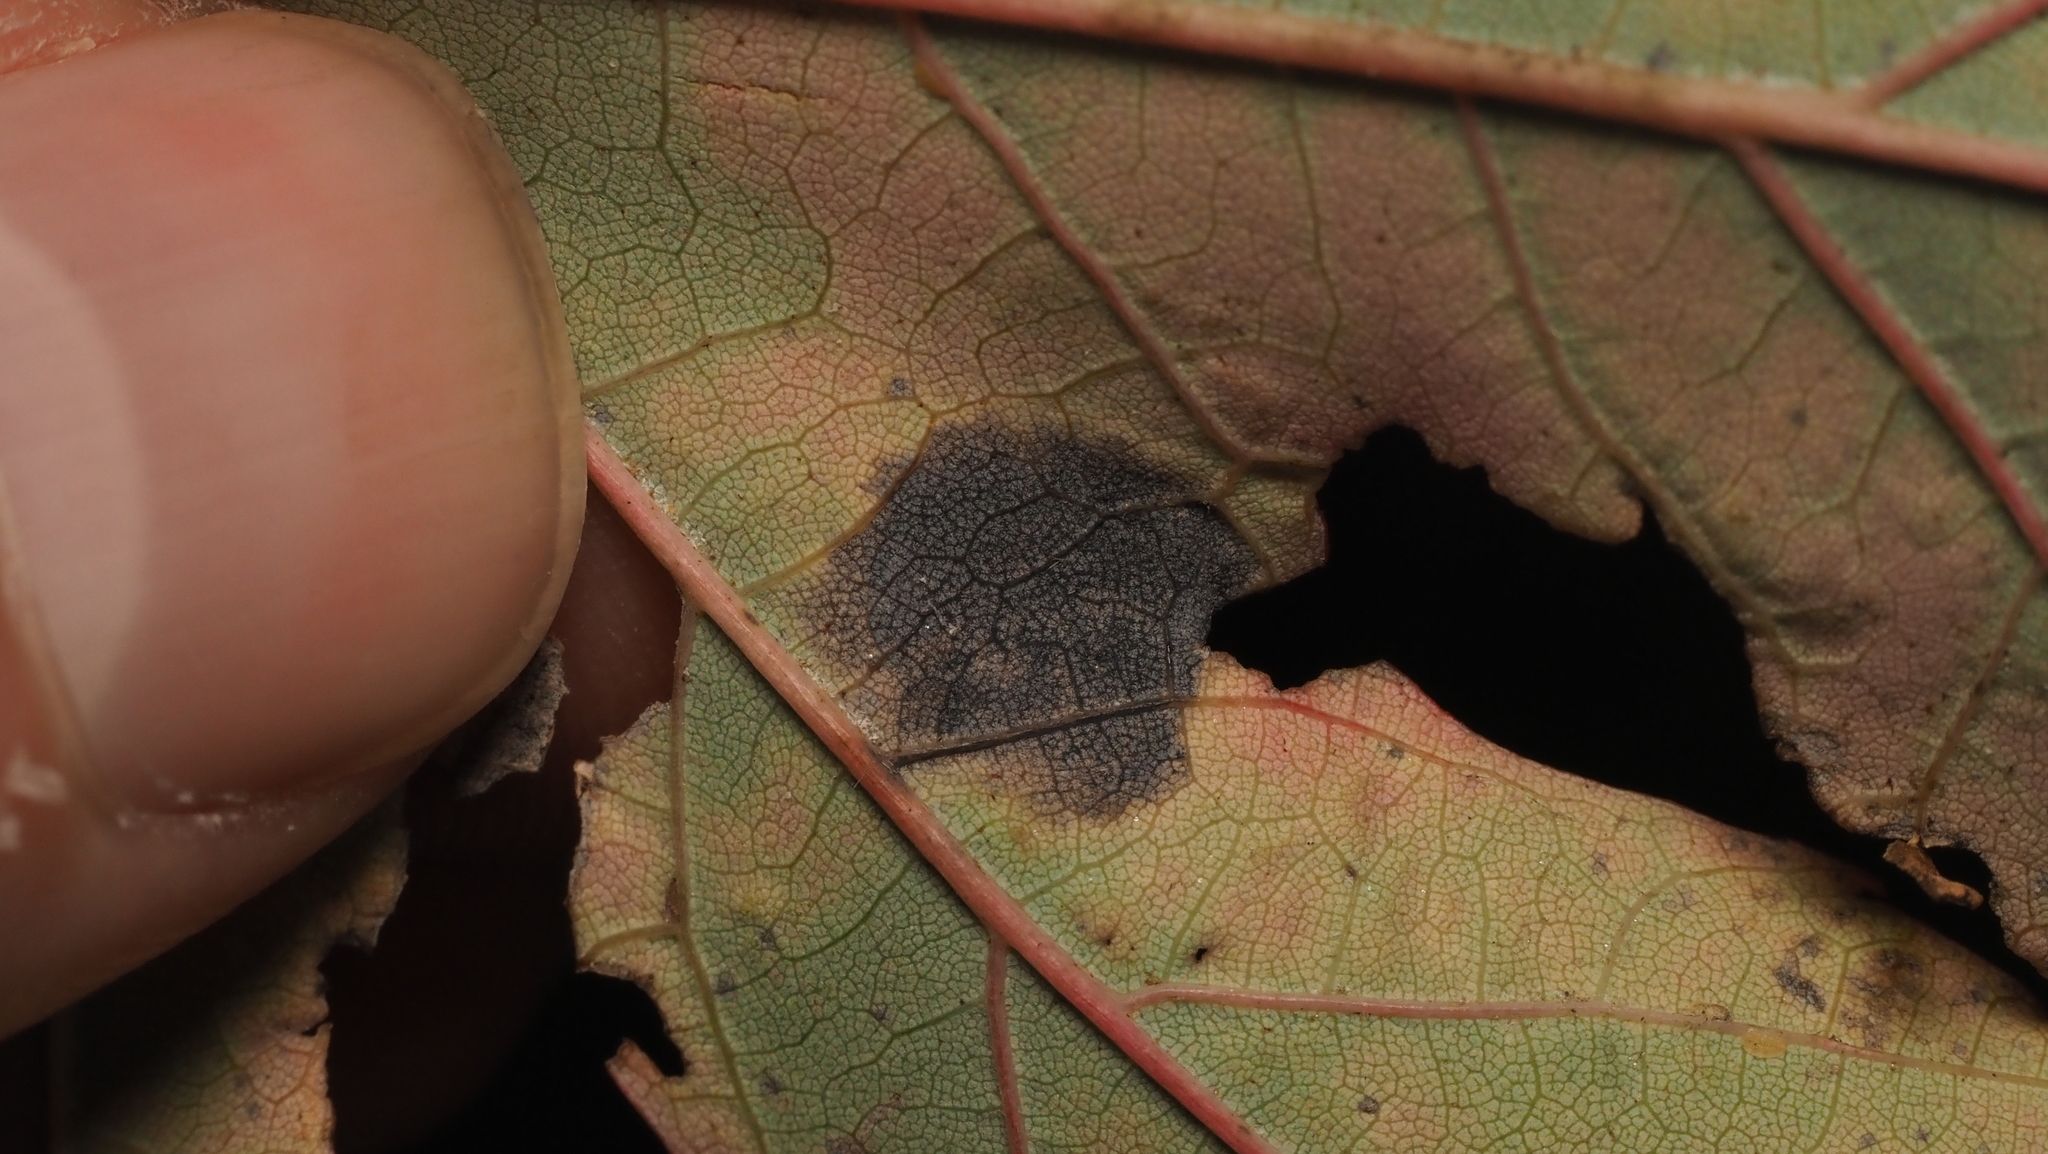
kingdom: Fungi
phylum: Ascomycota
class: Leotiomycetes
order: Rhytismatales
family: Rhytismataceae
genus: Rhytisma
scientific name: Rhytisma americanum
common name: American tar spot
